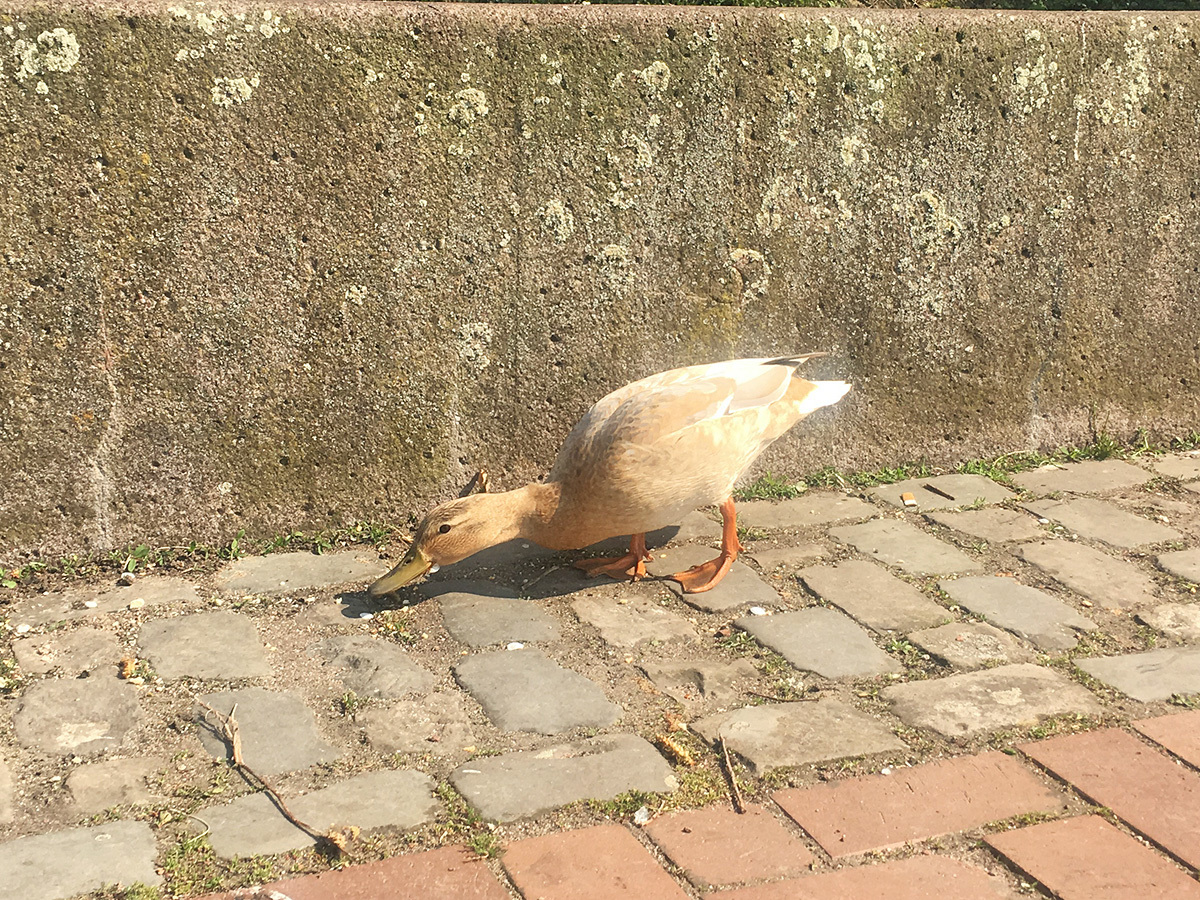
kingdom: Animalia
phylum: Chordata
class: Aves
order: Anseriformes
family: Anatidae
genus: Anas
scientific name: Anas platyrhynchos
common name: Mallard
